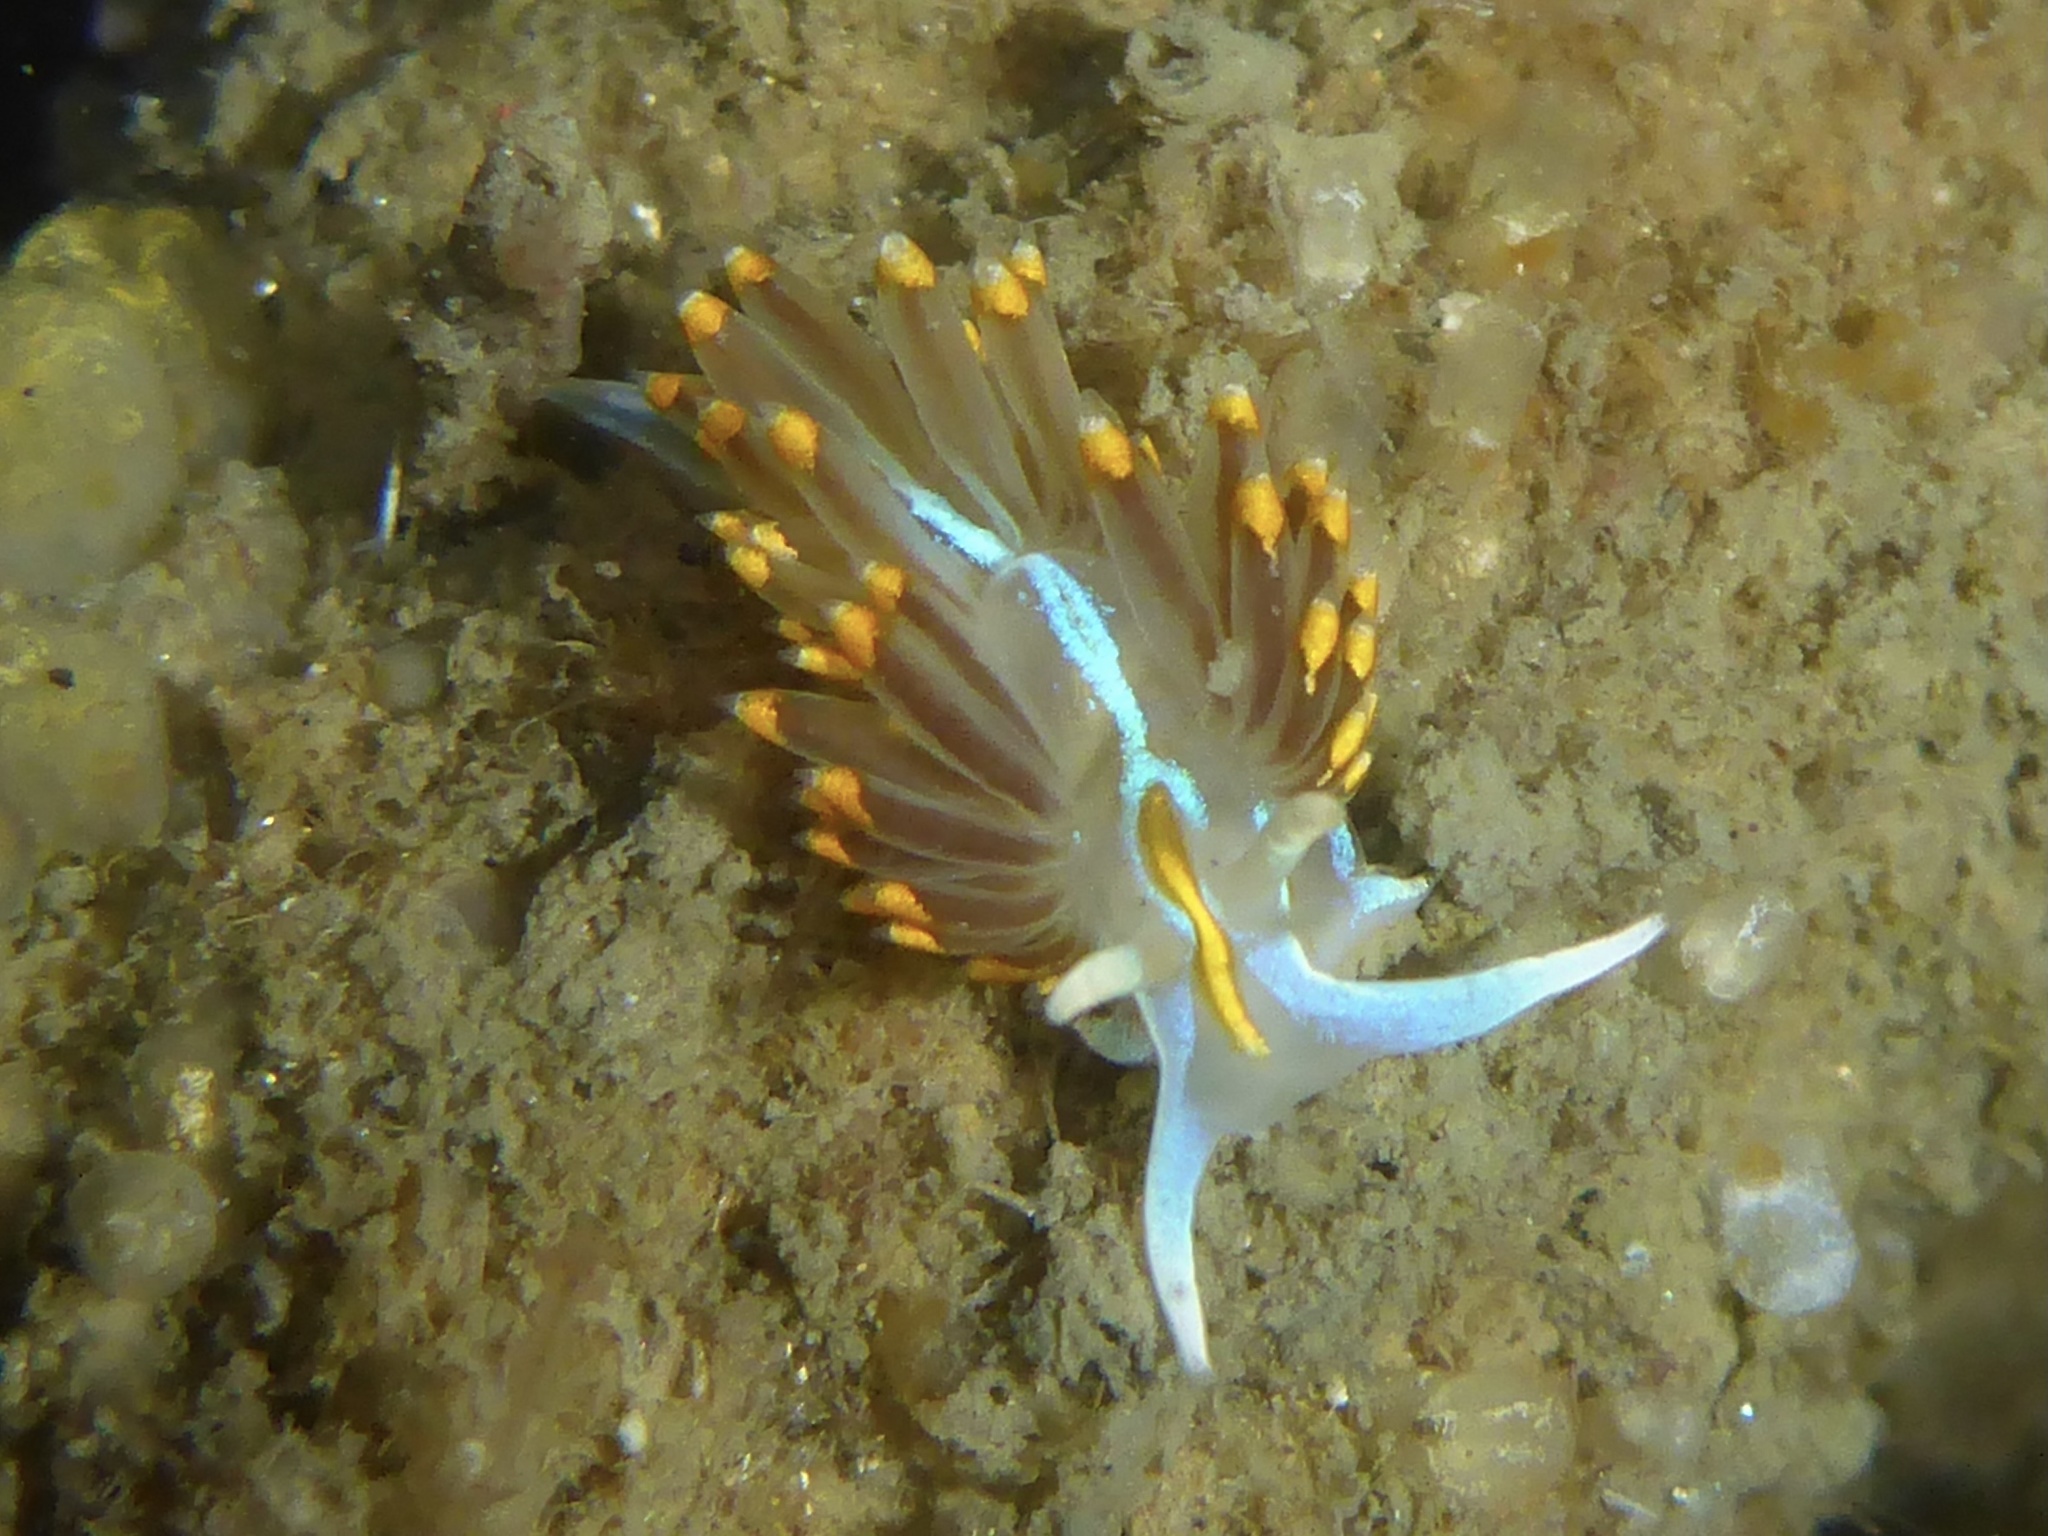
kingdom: Animalia
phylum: Mollusca
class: Gastropoda
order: Nudibranchia
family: Myrrhinidae
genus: Hermissenda
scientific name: Hermissenda opalescens
